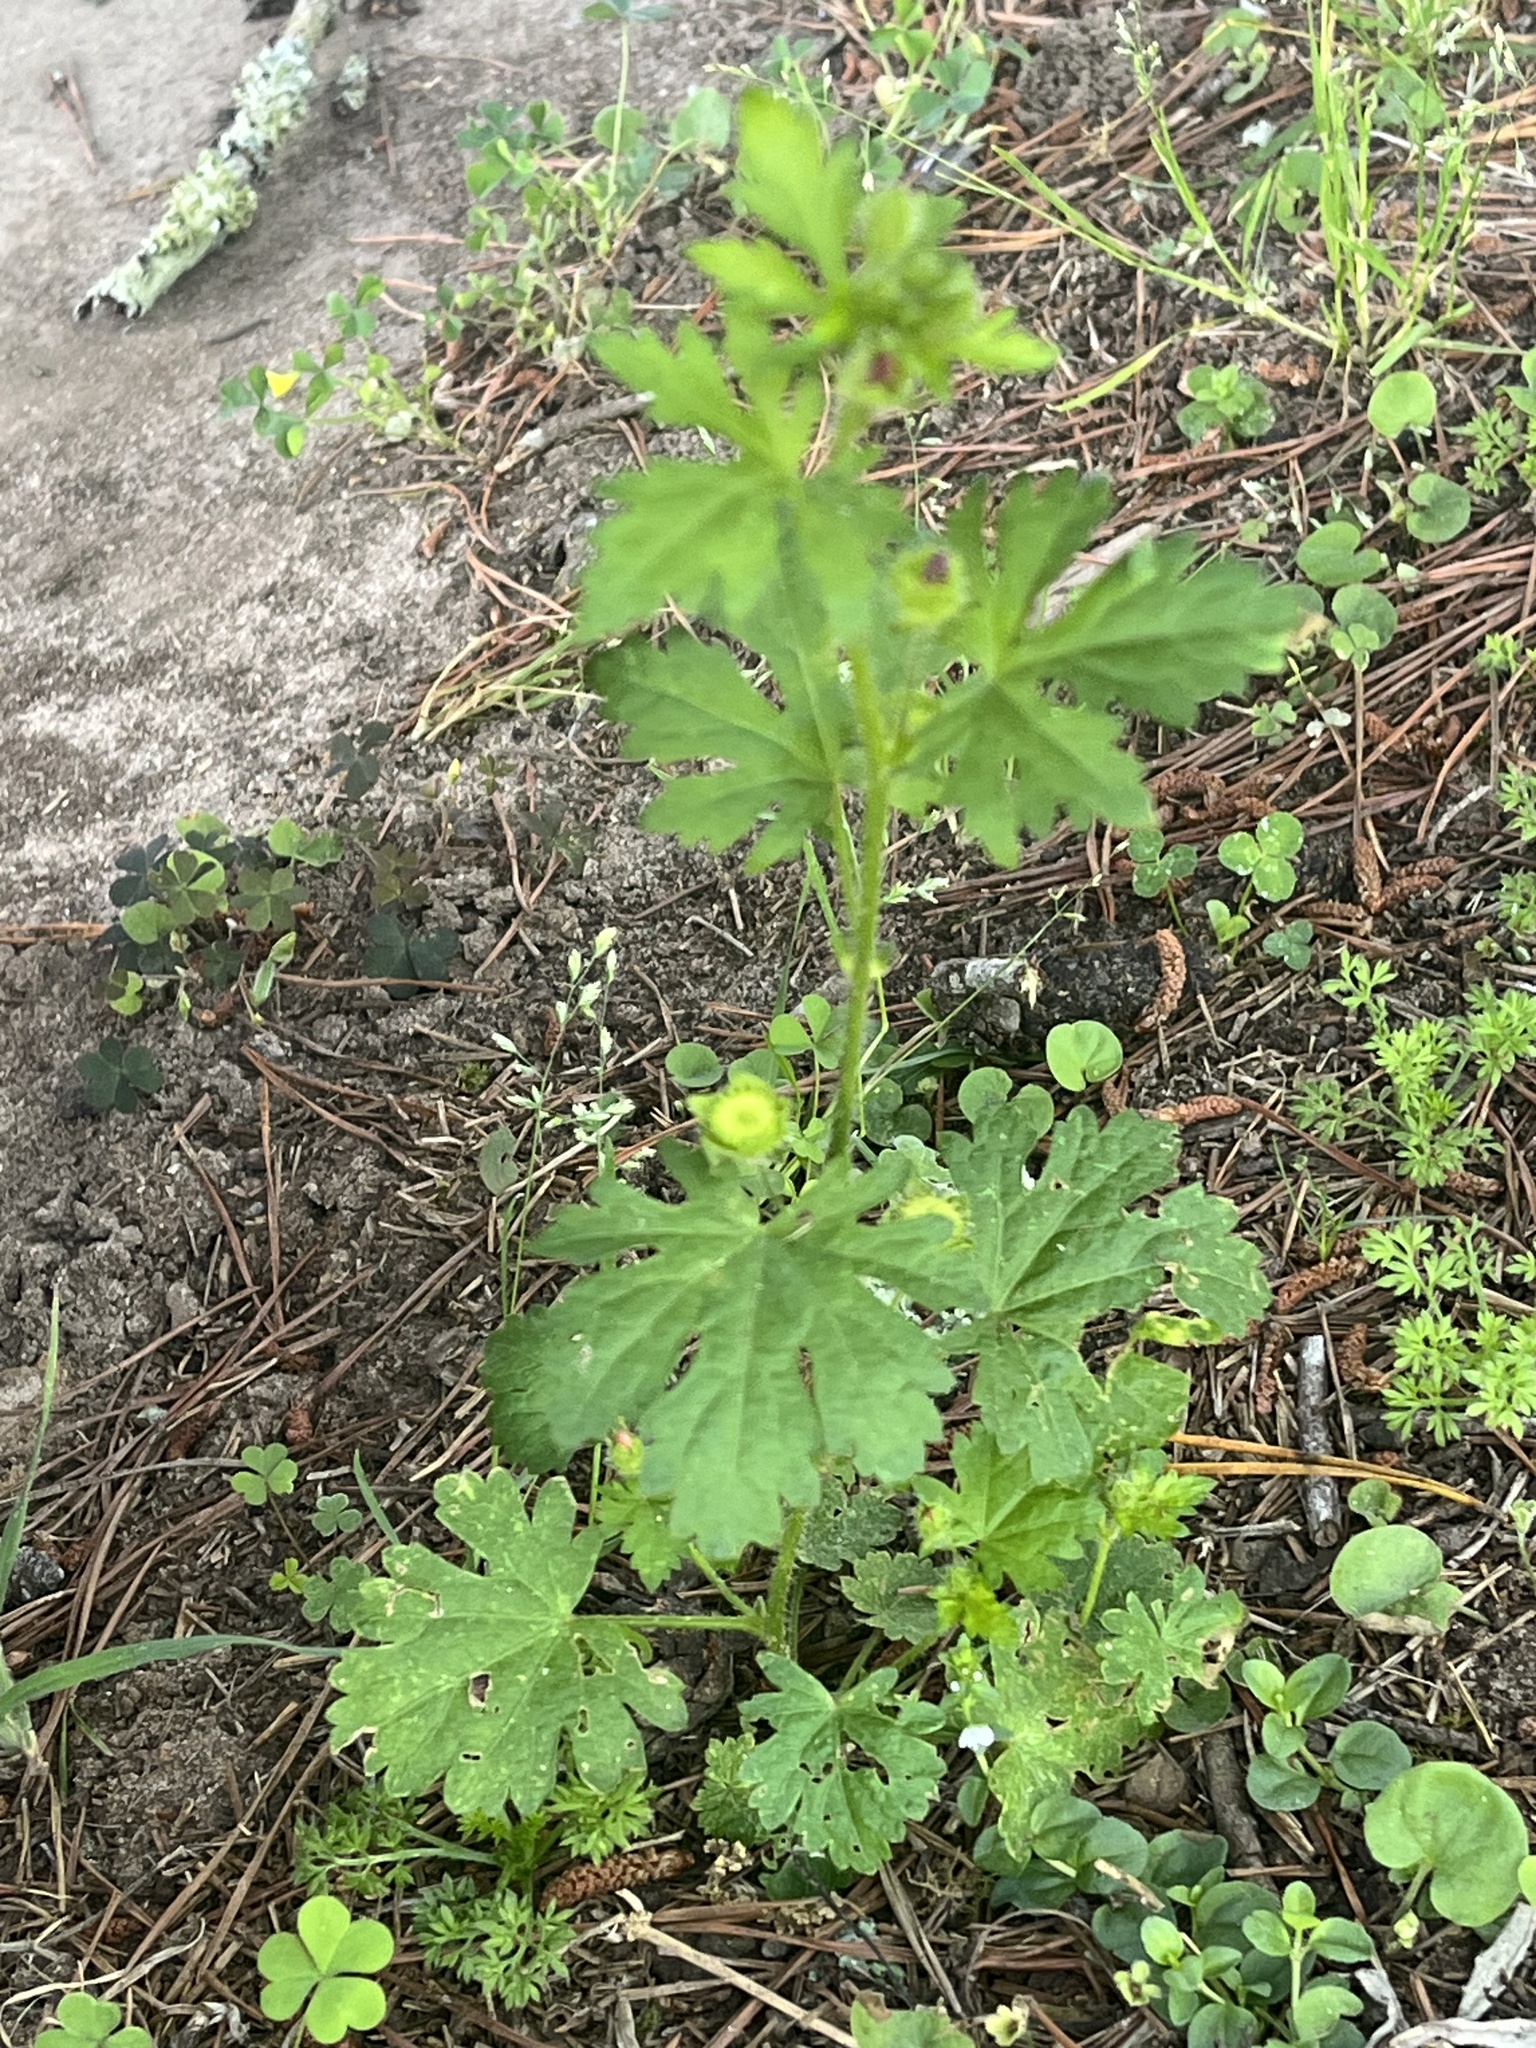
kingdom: Plantae
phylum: Tracheophyta
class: Magnoliopsida
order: Malvales
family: Malvaceae
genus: Modiola
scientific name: Modiola caroliniana
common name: Carolina bristlemallow
